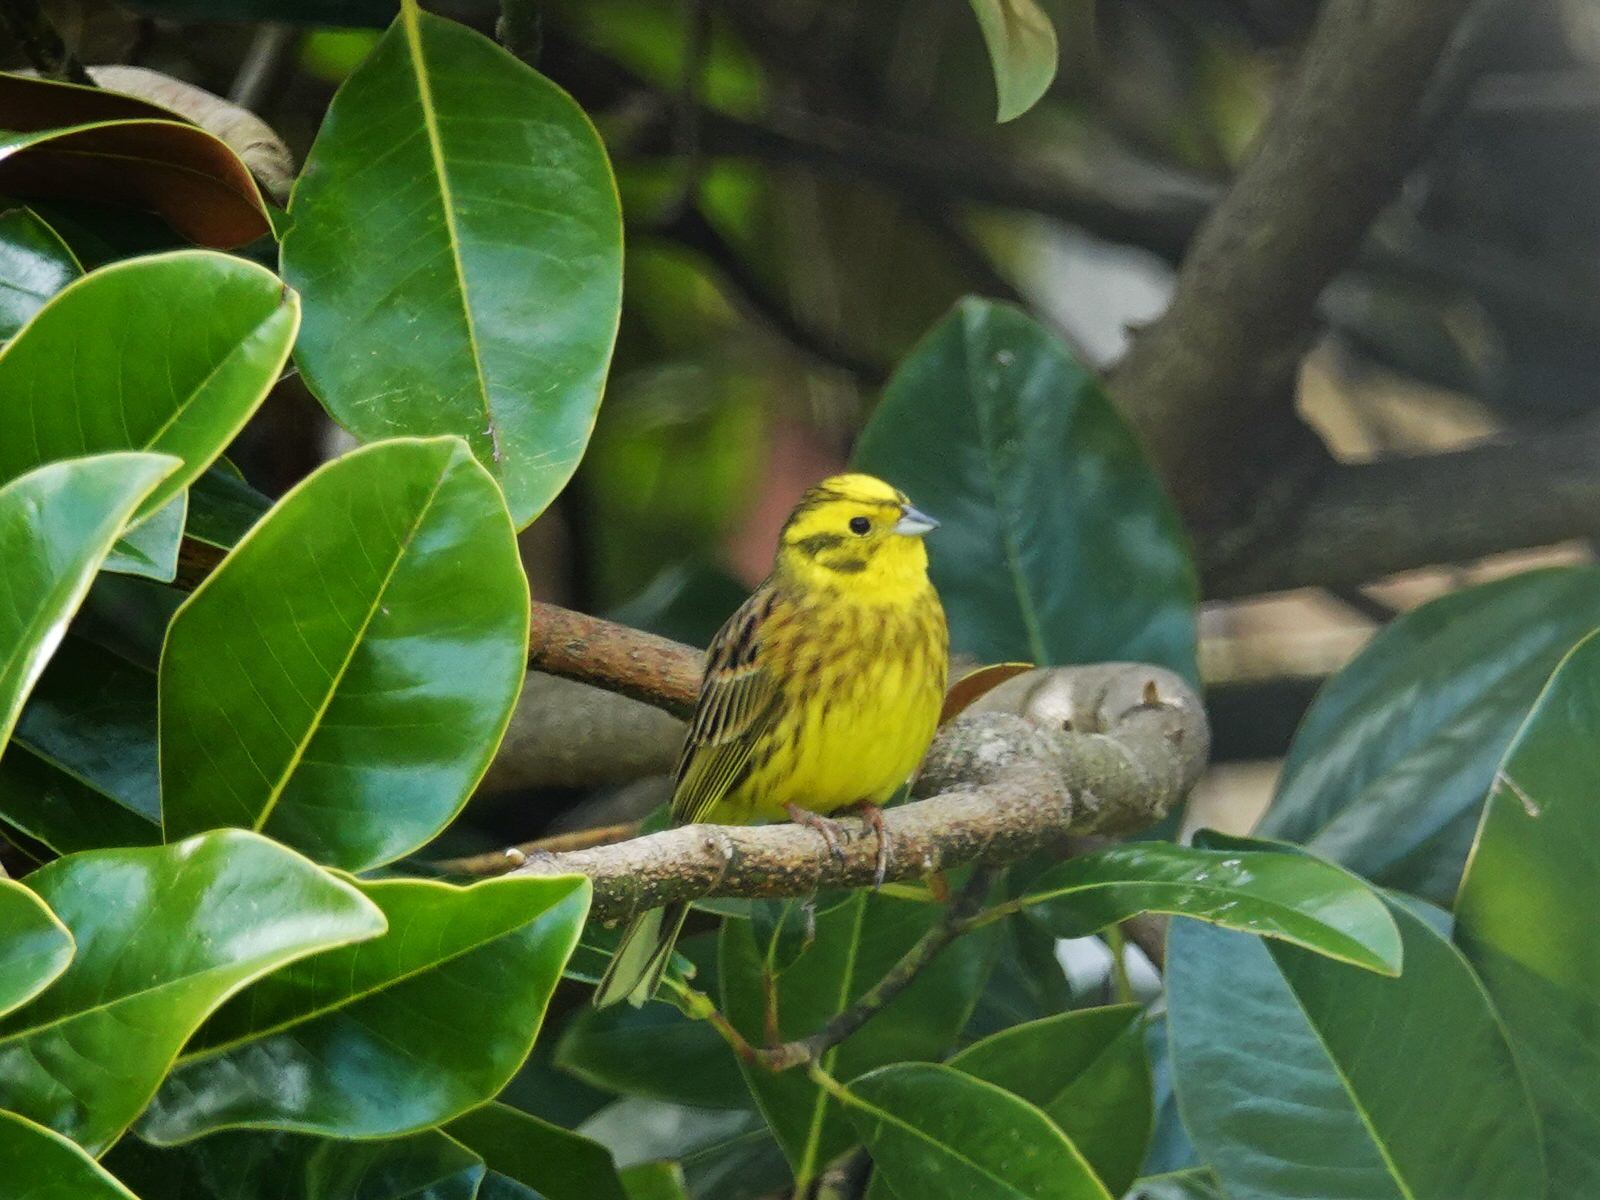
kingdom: Animalia
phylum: Chordata
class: Aves
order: Passeriformes
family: Emberizidae
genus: Emberiza
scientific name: Emberiza citrinella
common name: Yellowhammer
